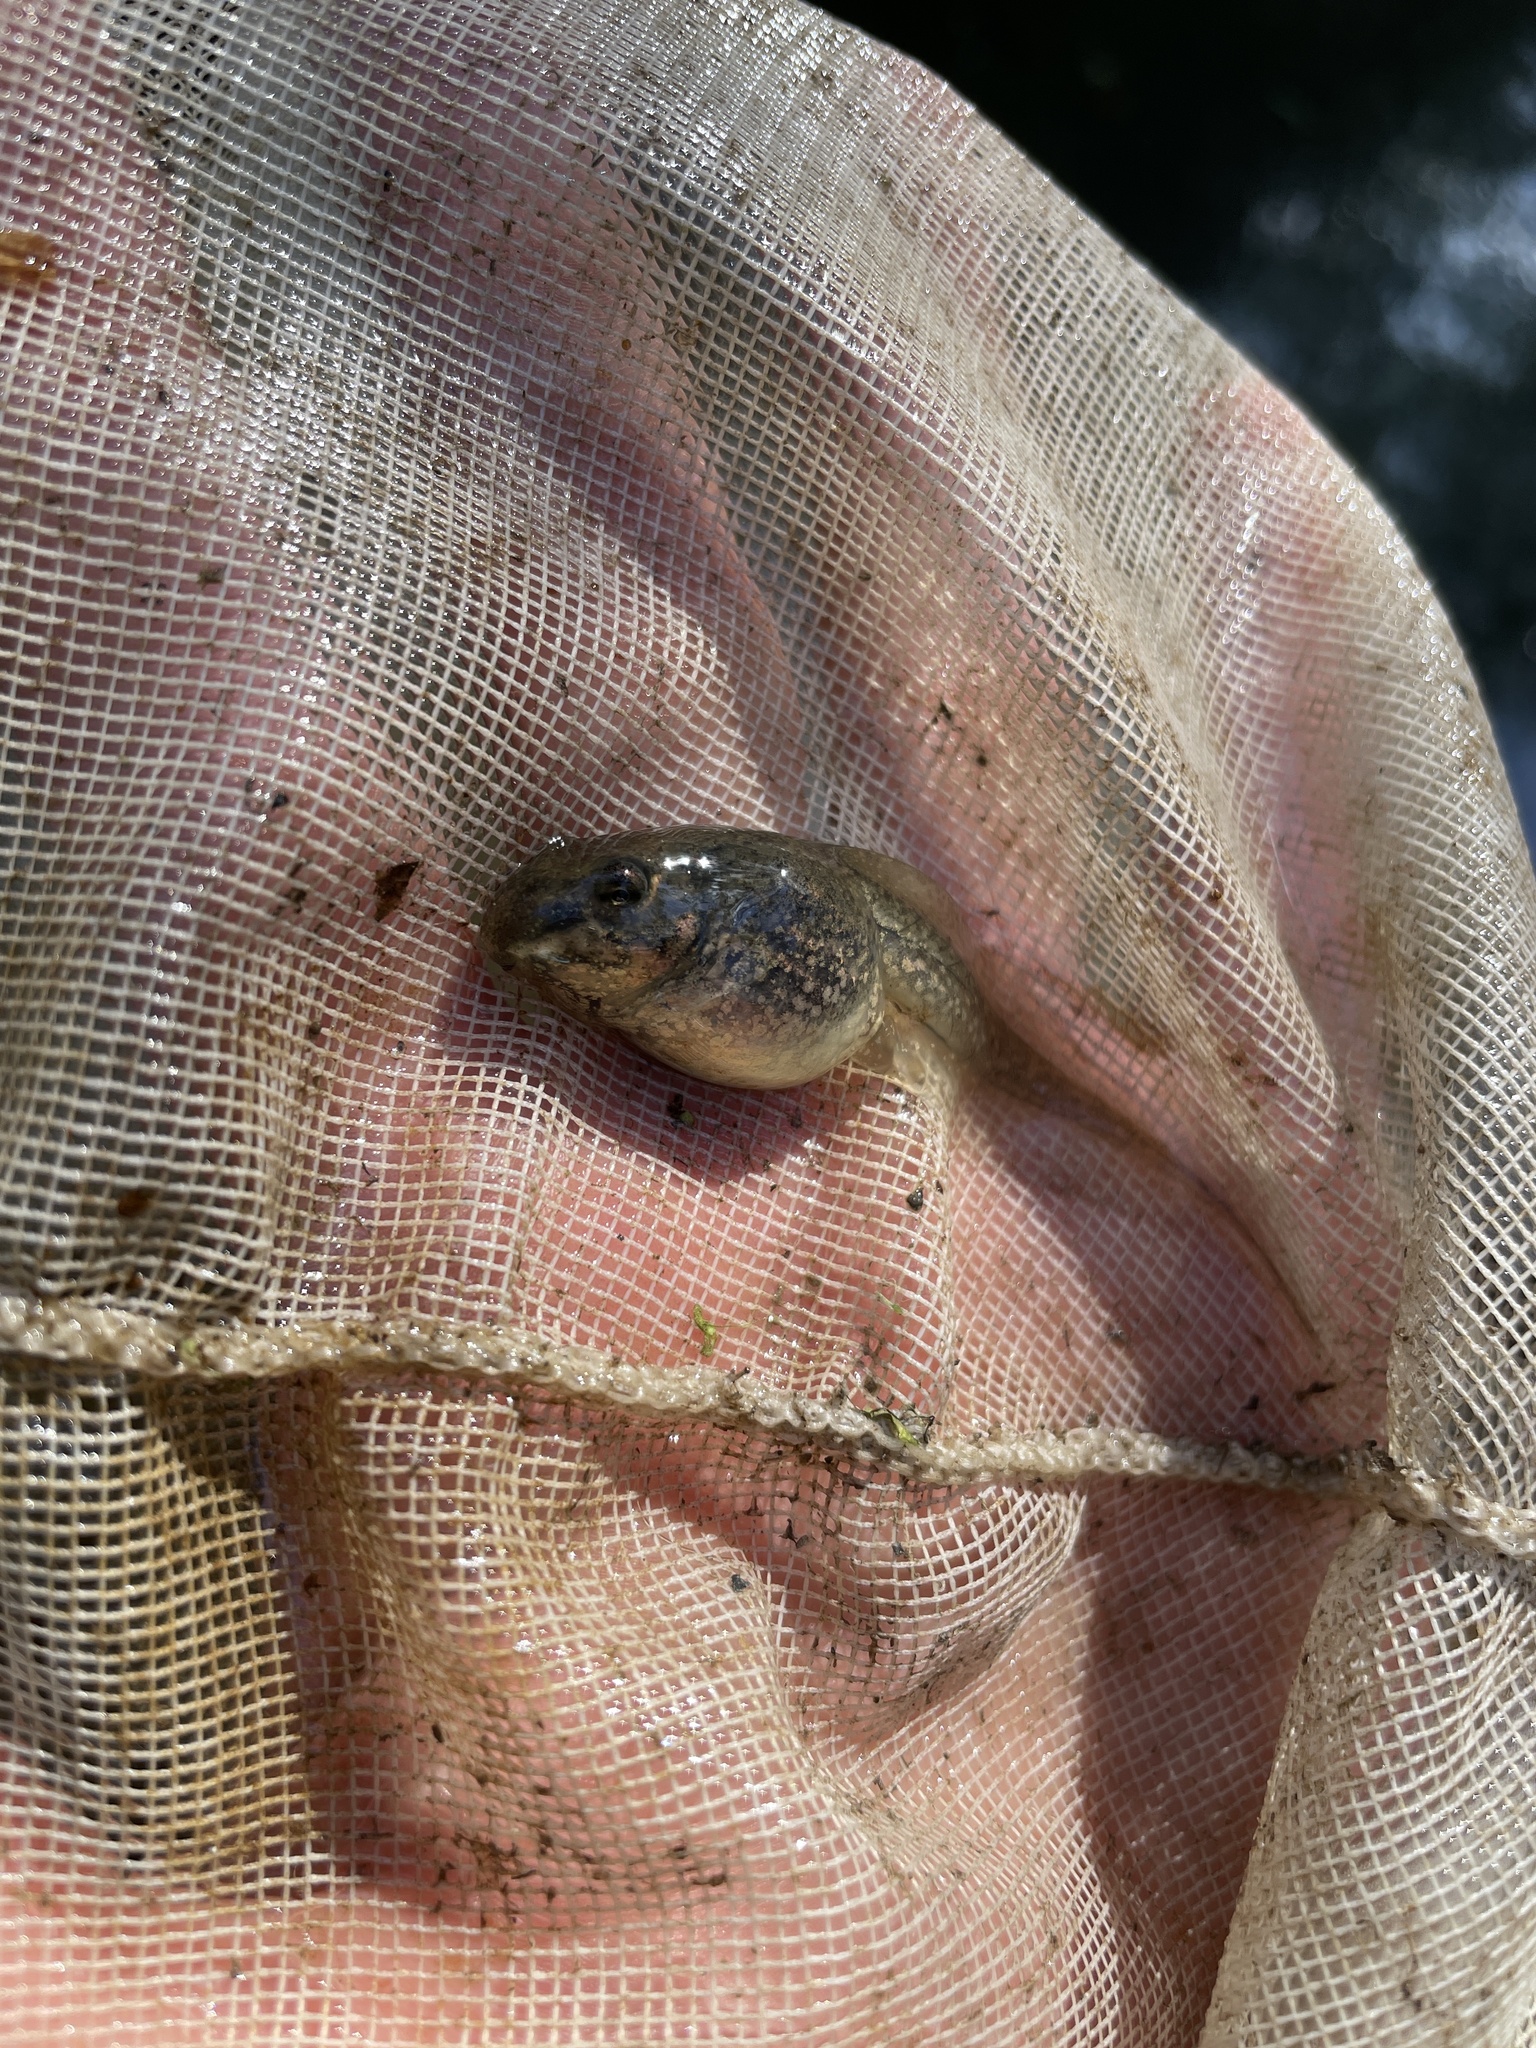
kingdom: Animalia
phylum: Chordata
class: Amphibia
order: Anura
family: Ranidae
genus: Lithobates
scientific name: Lithobates sphenocephalus
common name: Southern leopard frog
